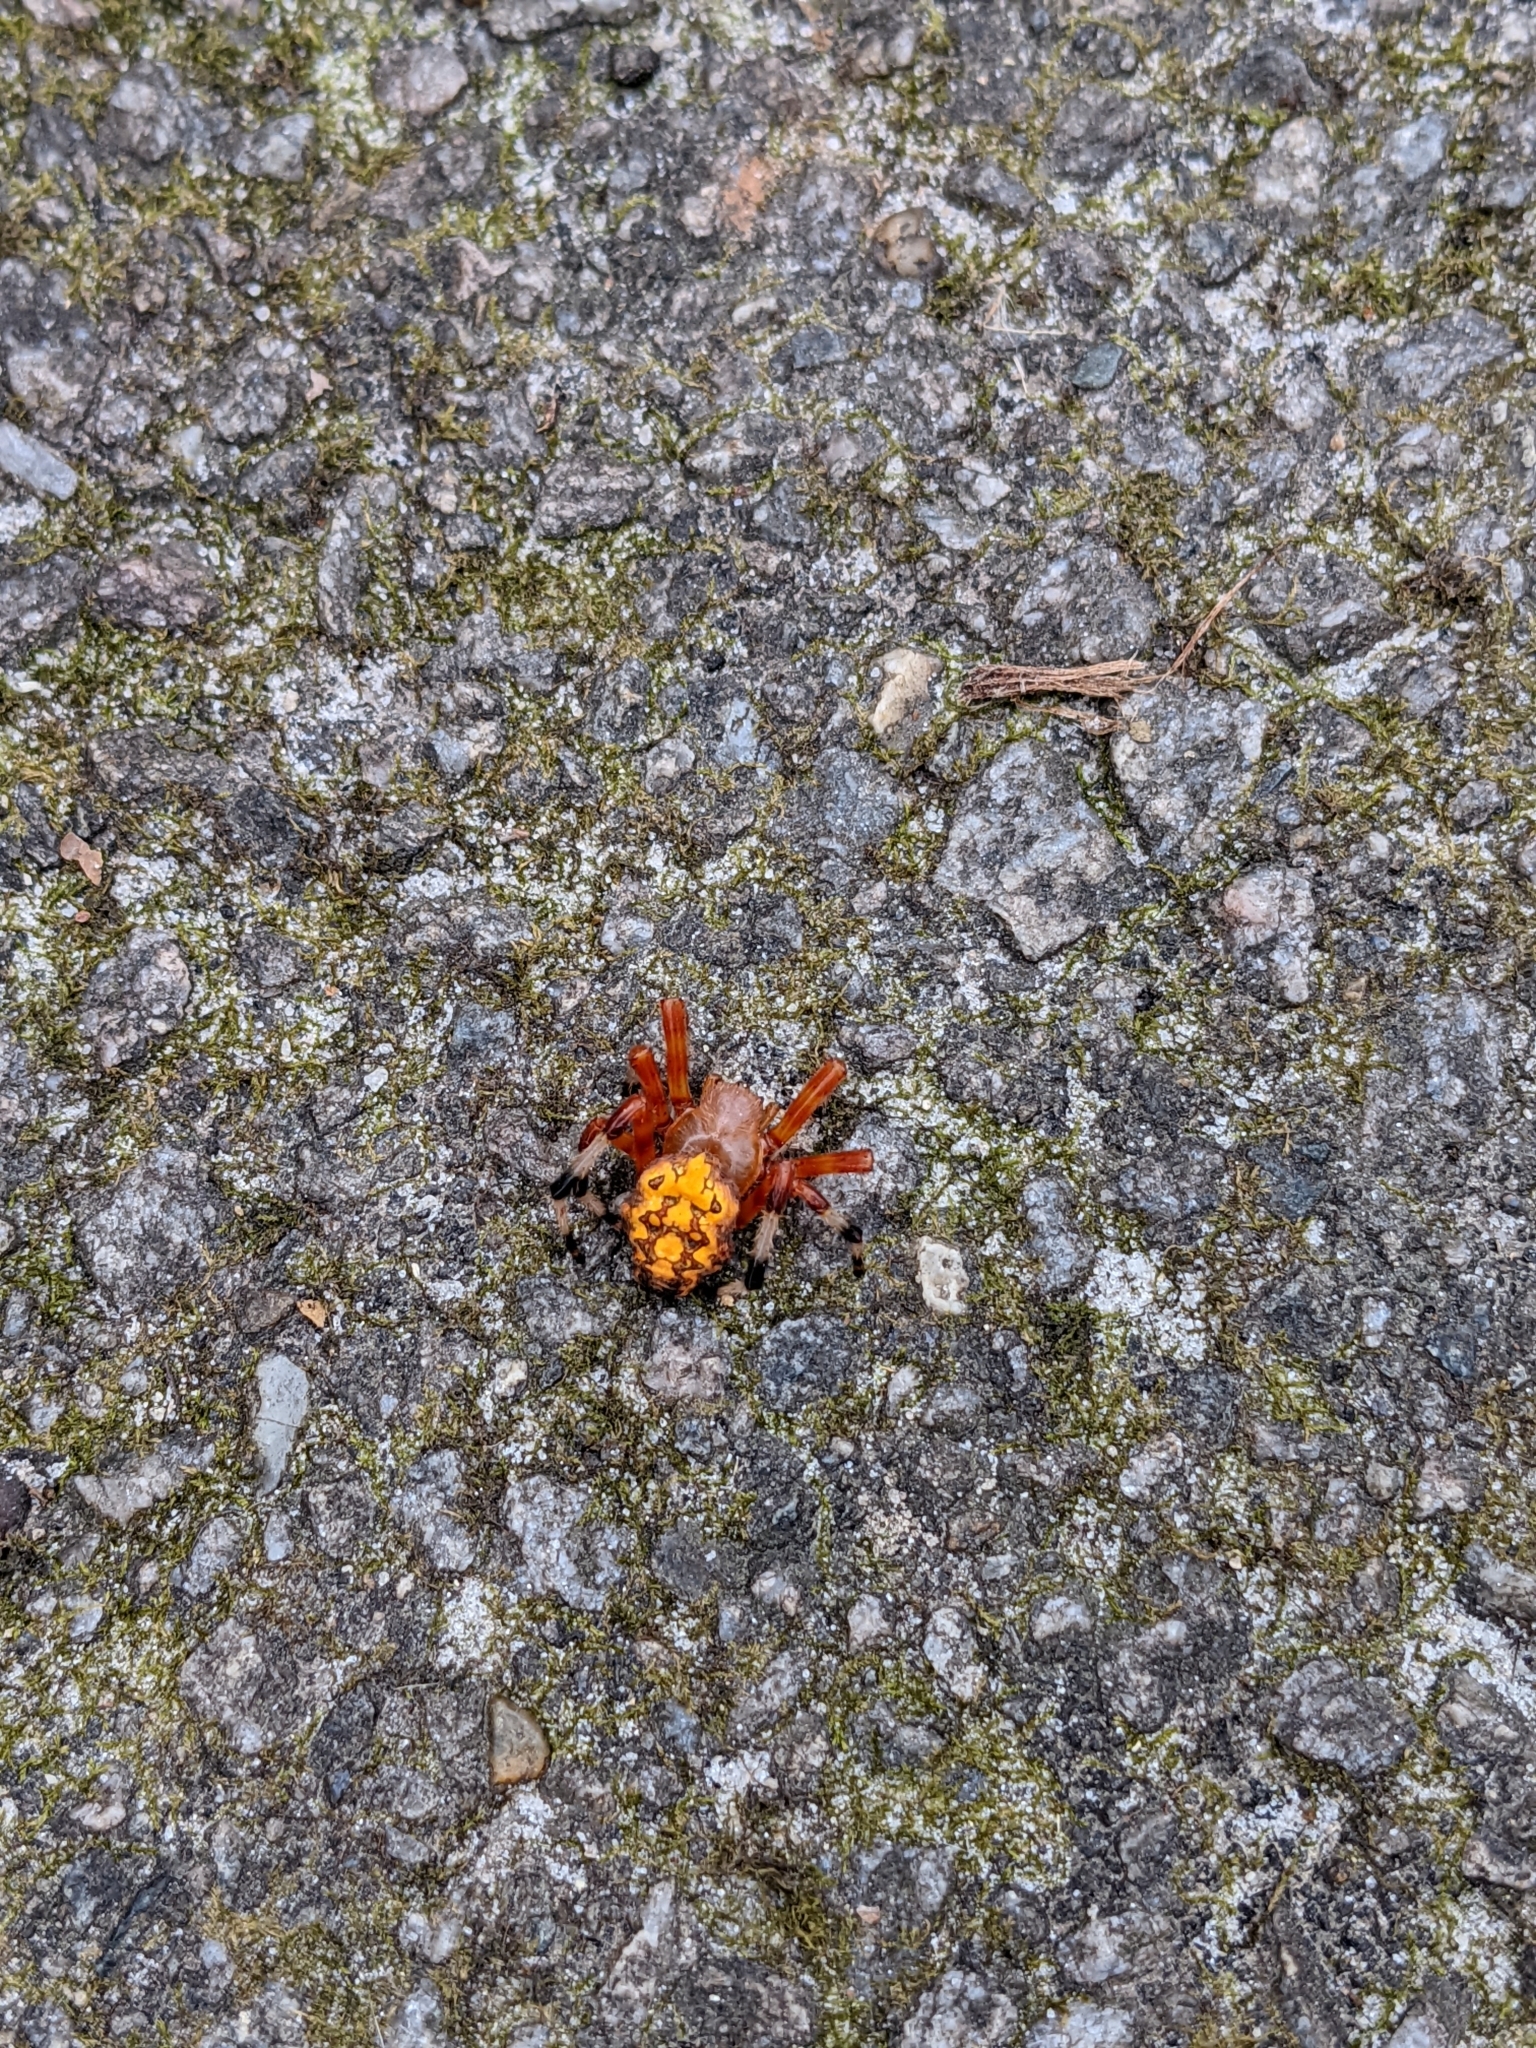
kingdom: Animalia
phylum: Arthropoda
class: Arachnida
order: Araneae
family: Araneidae
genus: Araneus
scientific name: Araneus marmoreus
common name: Marbled orbweaver
